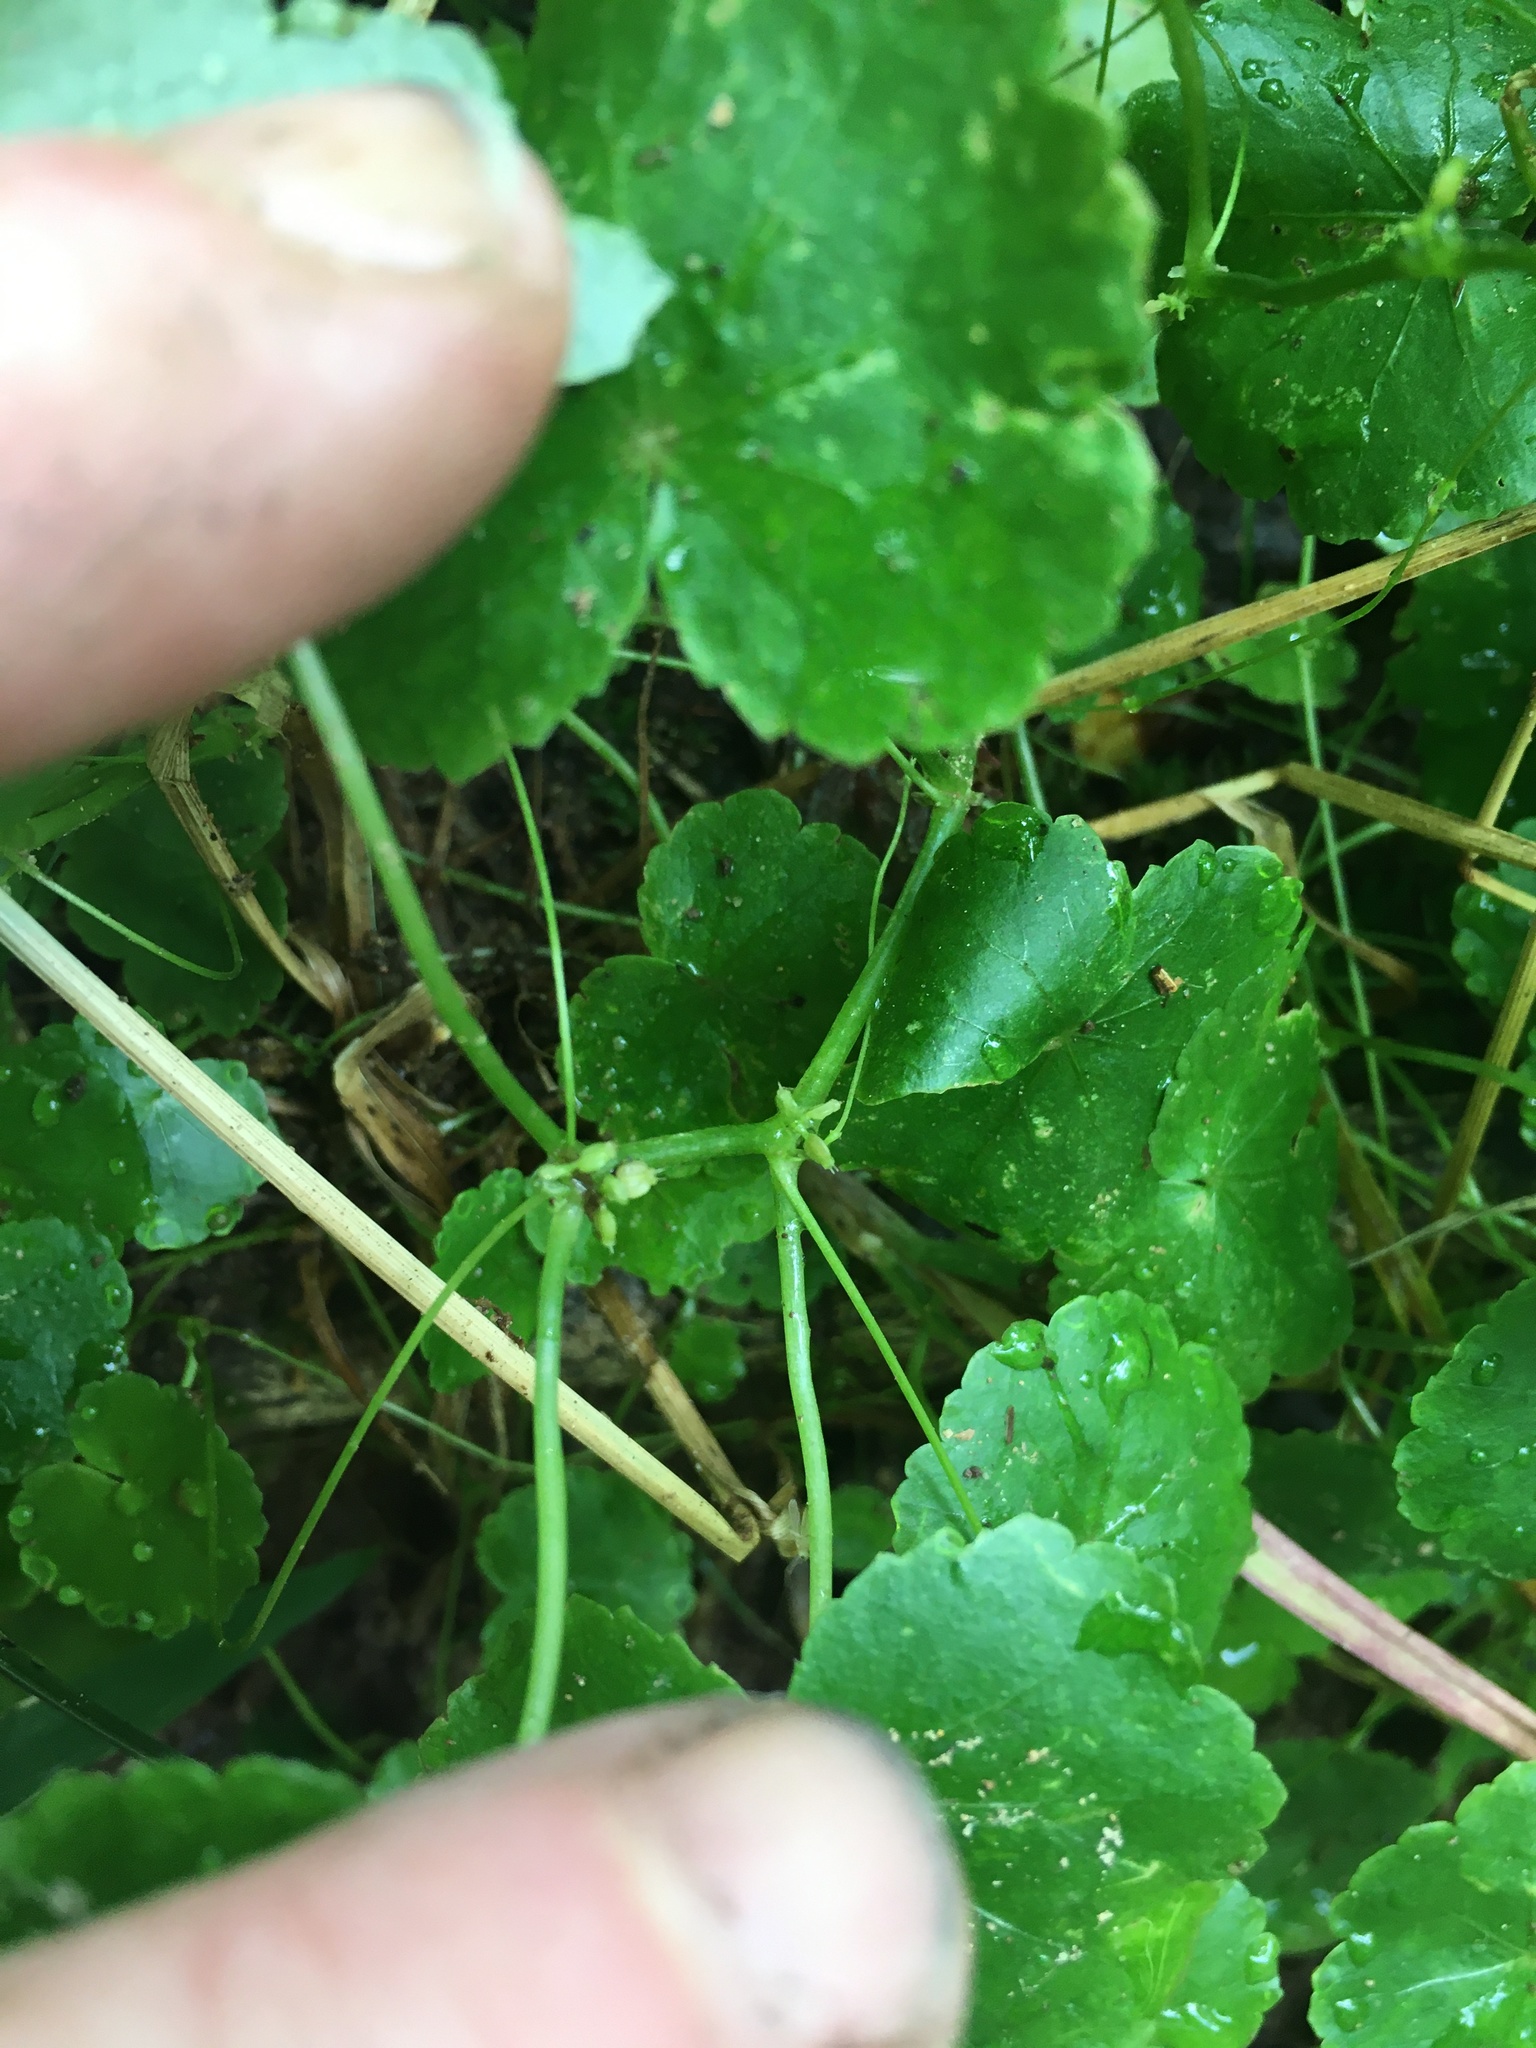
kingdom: Plantae
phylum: Tracheophyta
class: Magnoliopsida
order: Apiales
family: Araliaceae
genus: Hydrocotyle
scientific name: Hydrocotyle americana
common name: American water-pennywort
